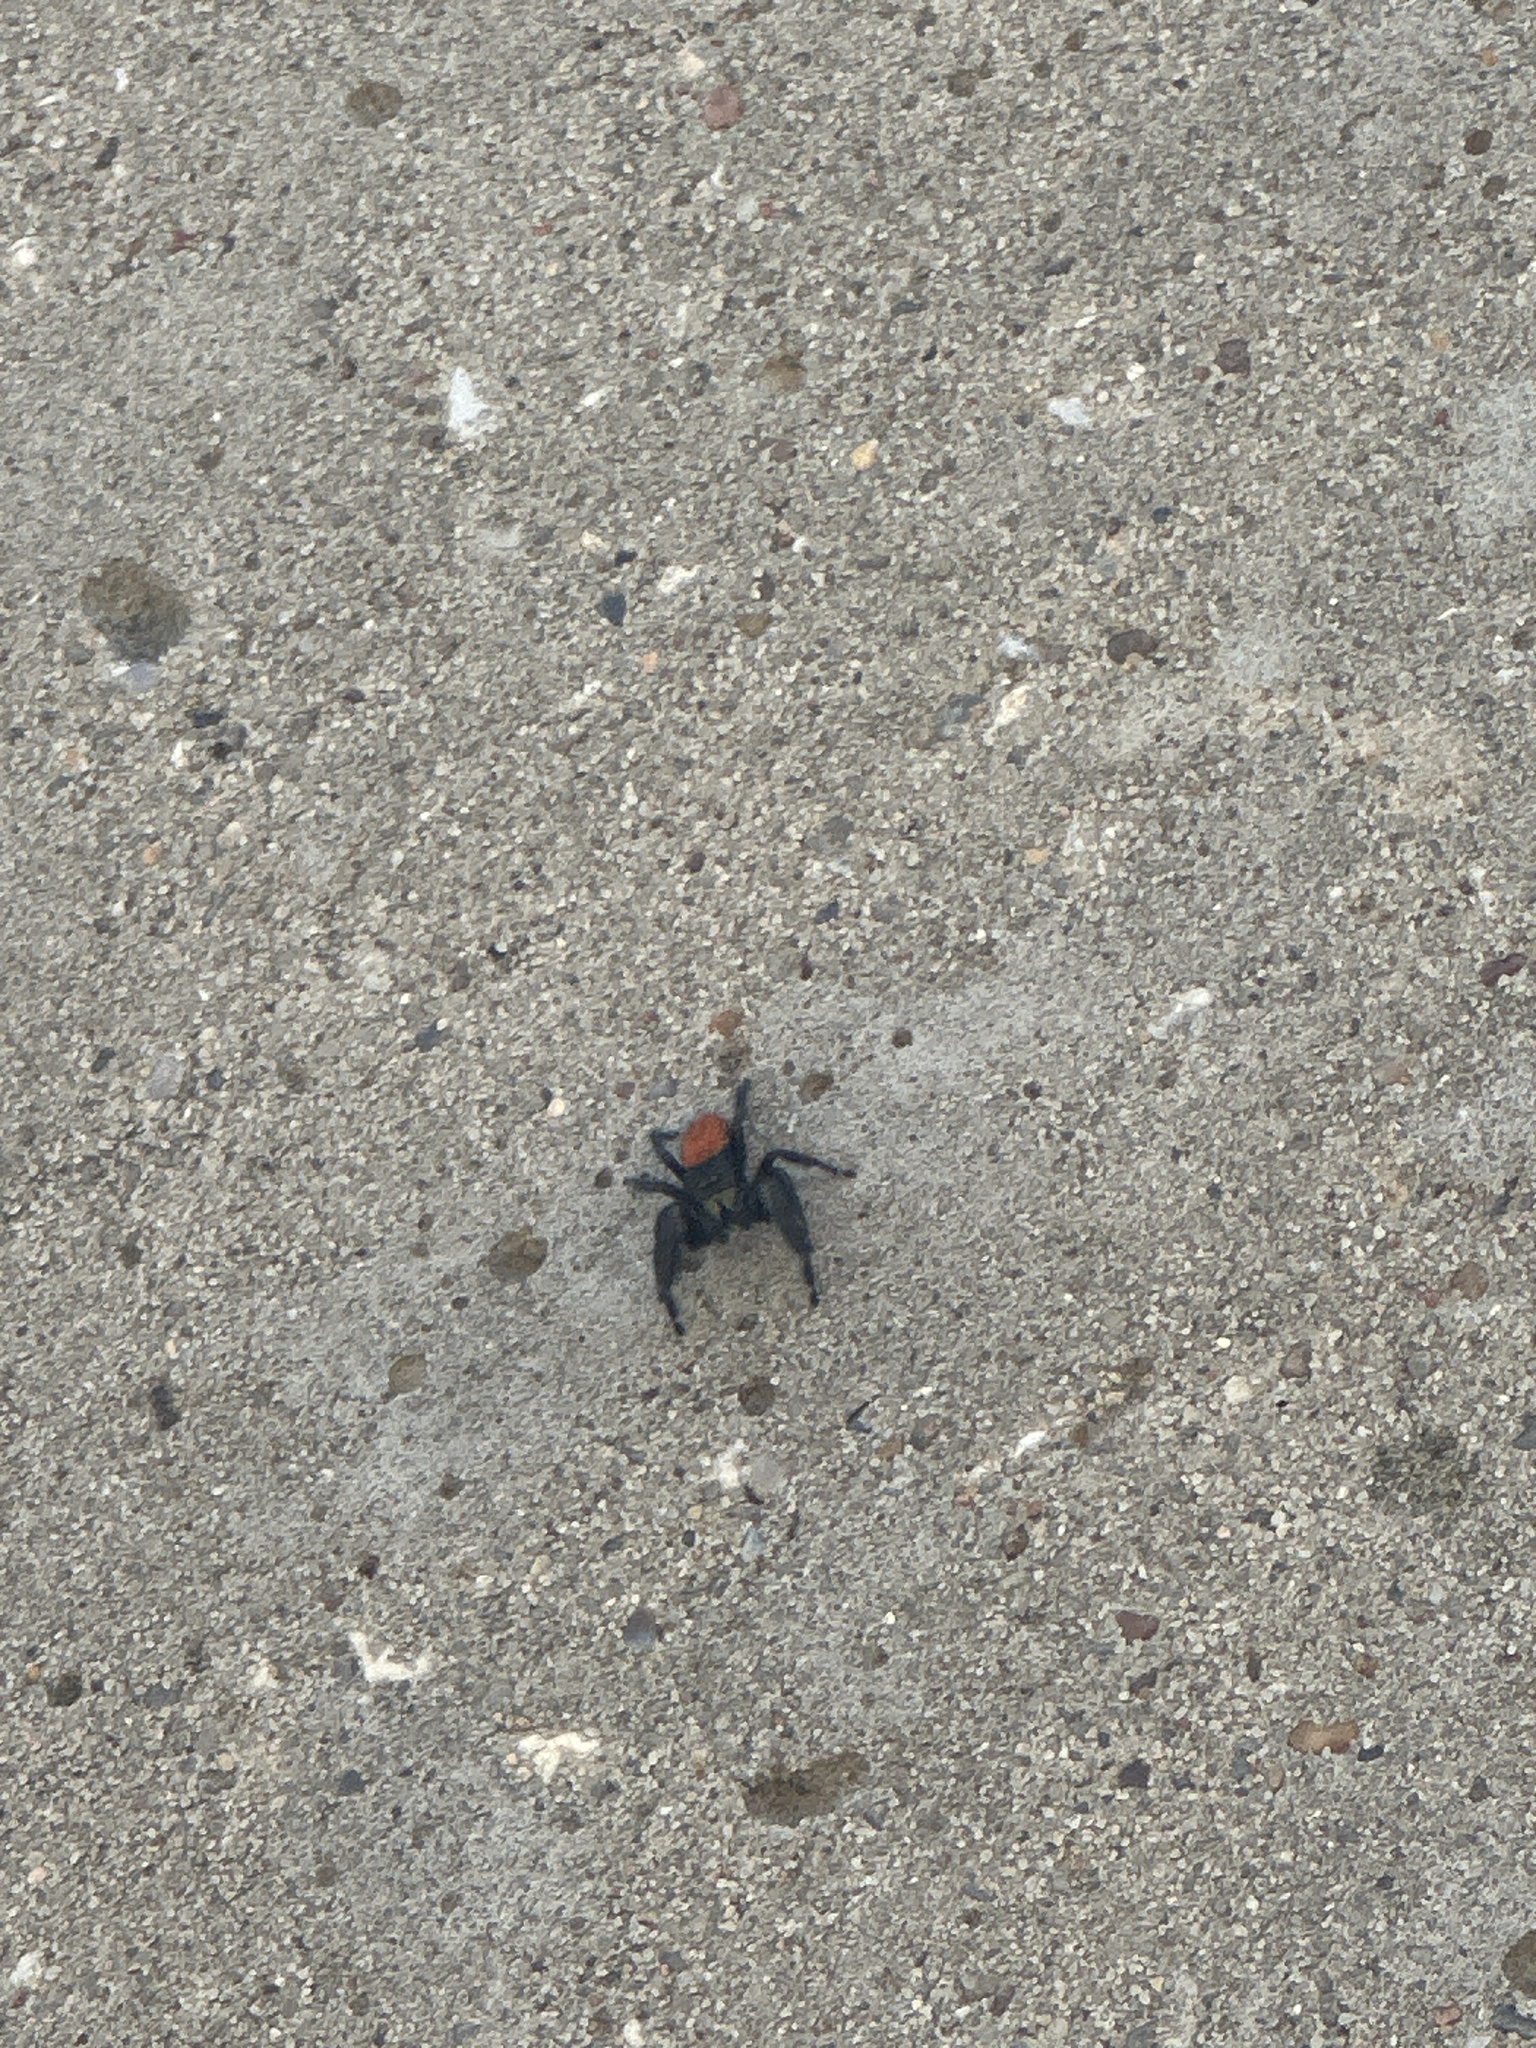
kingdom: Animalia
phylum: Arthropoda
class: Arachnida
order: Araneae
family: Salticidae
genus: Phidippus
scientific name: Phidippus texanus
